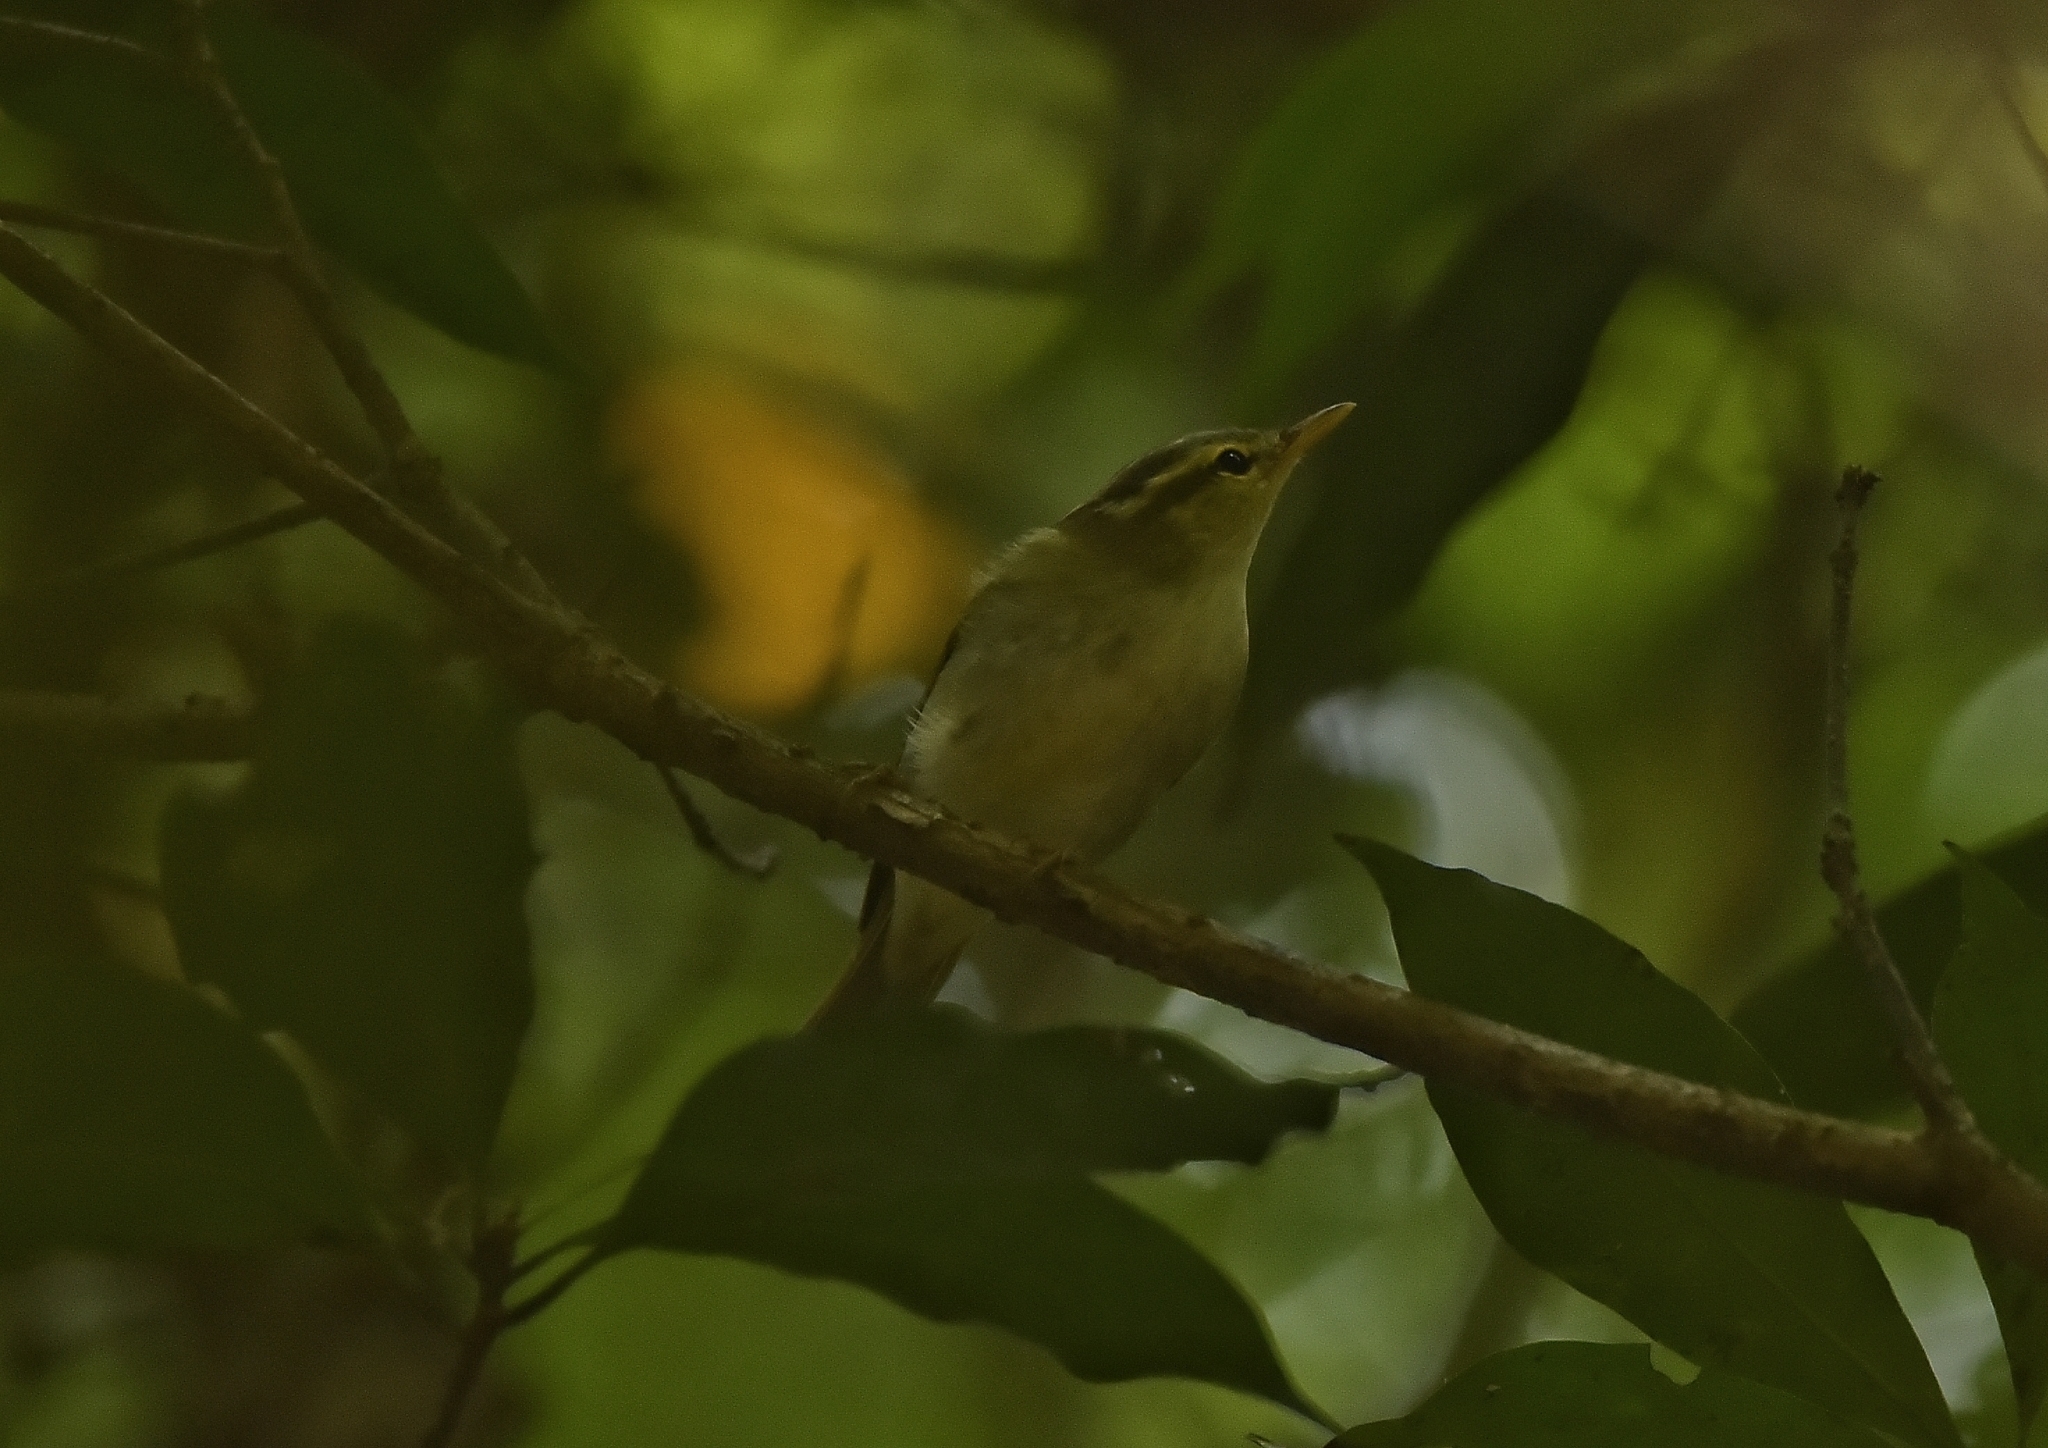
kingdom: Animalia
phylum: Chordata
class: Aves
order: Passeriformes
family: Phylloscopidae
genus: Phylloscopus
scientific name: Phylloscopus occipitalis
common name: Western crowned warbler
